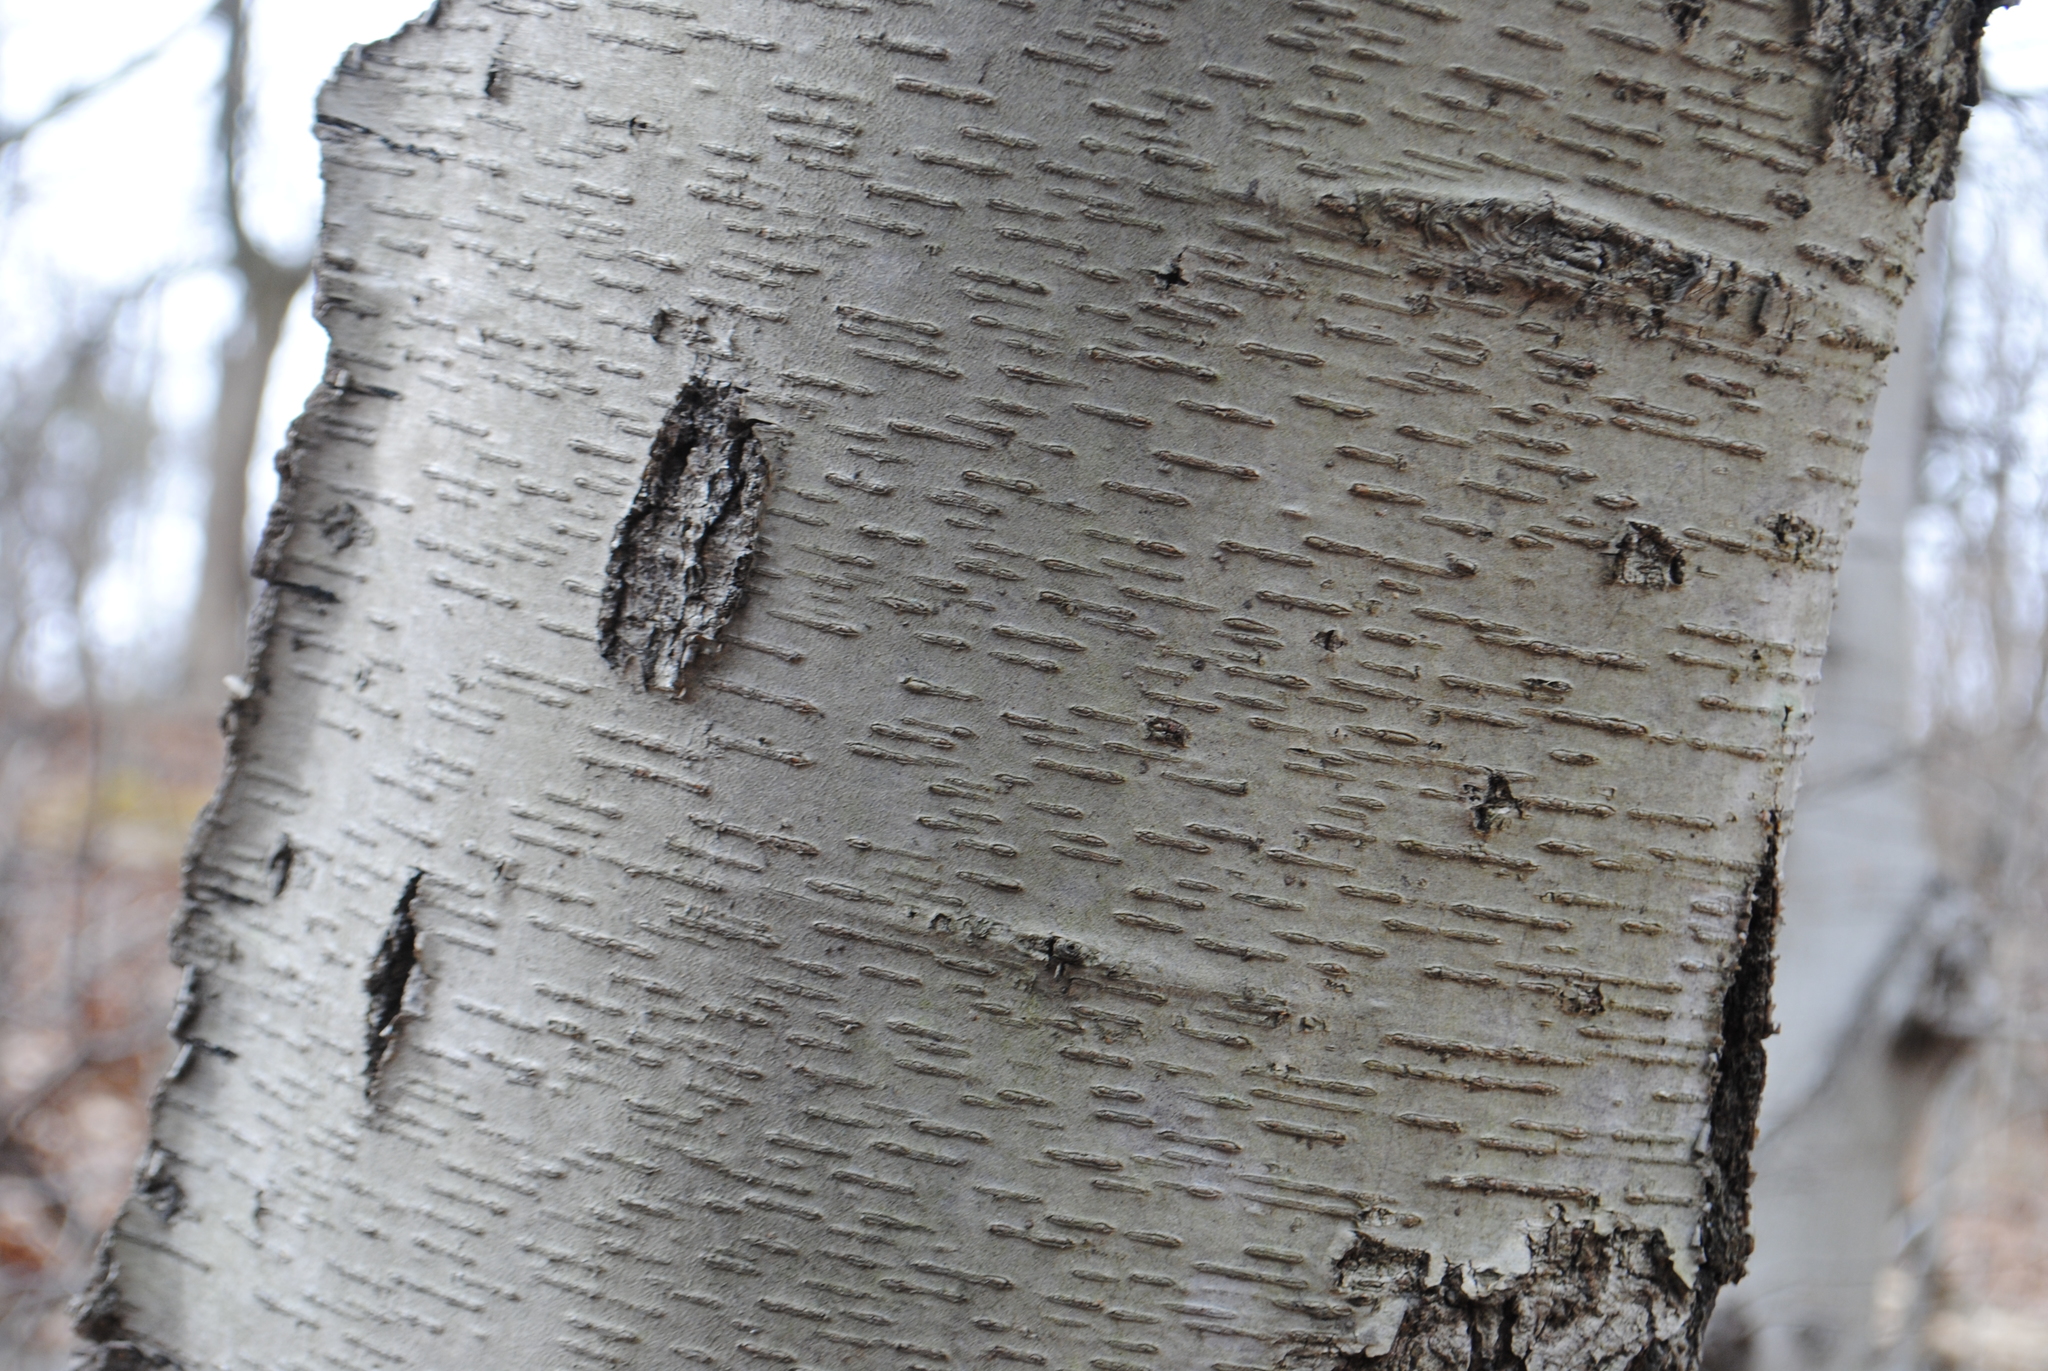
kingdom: Plantae
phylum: Tracheophyta
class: Magnoliopsida
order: Fagales
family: Betulaceae
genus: Betula
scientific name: Betula lenta
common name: Black birch
